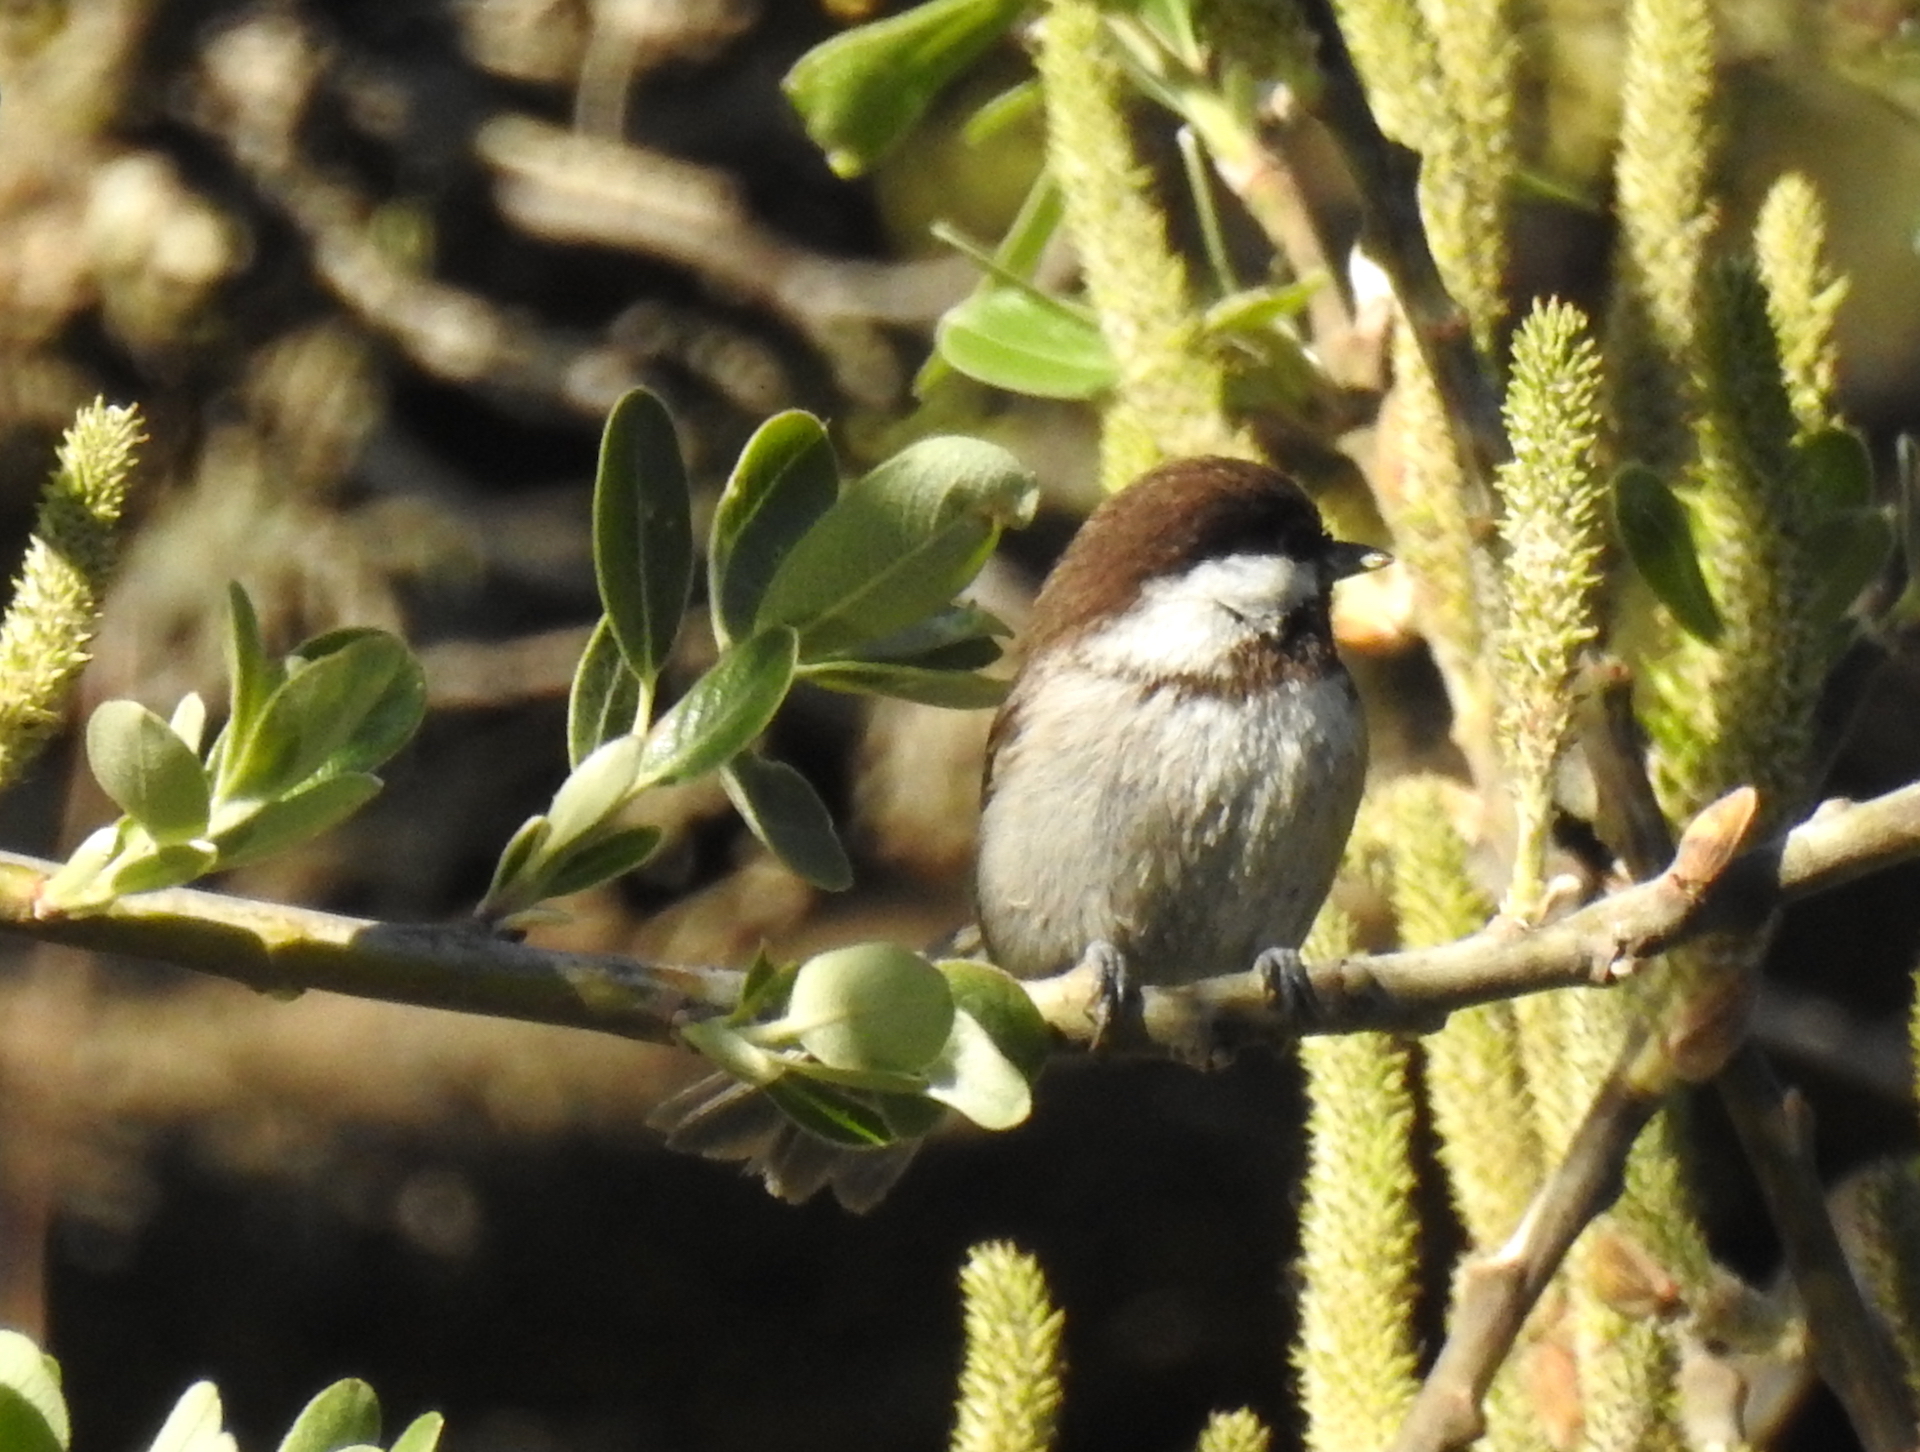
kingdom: Animalia
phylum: Chordata
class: Aves
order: Passeriformes
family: Paridae
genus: Poecile
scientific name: Poecile rufescens
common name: Chestnut-backed chickadee
